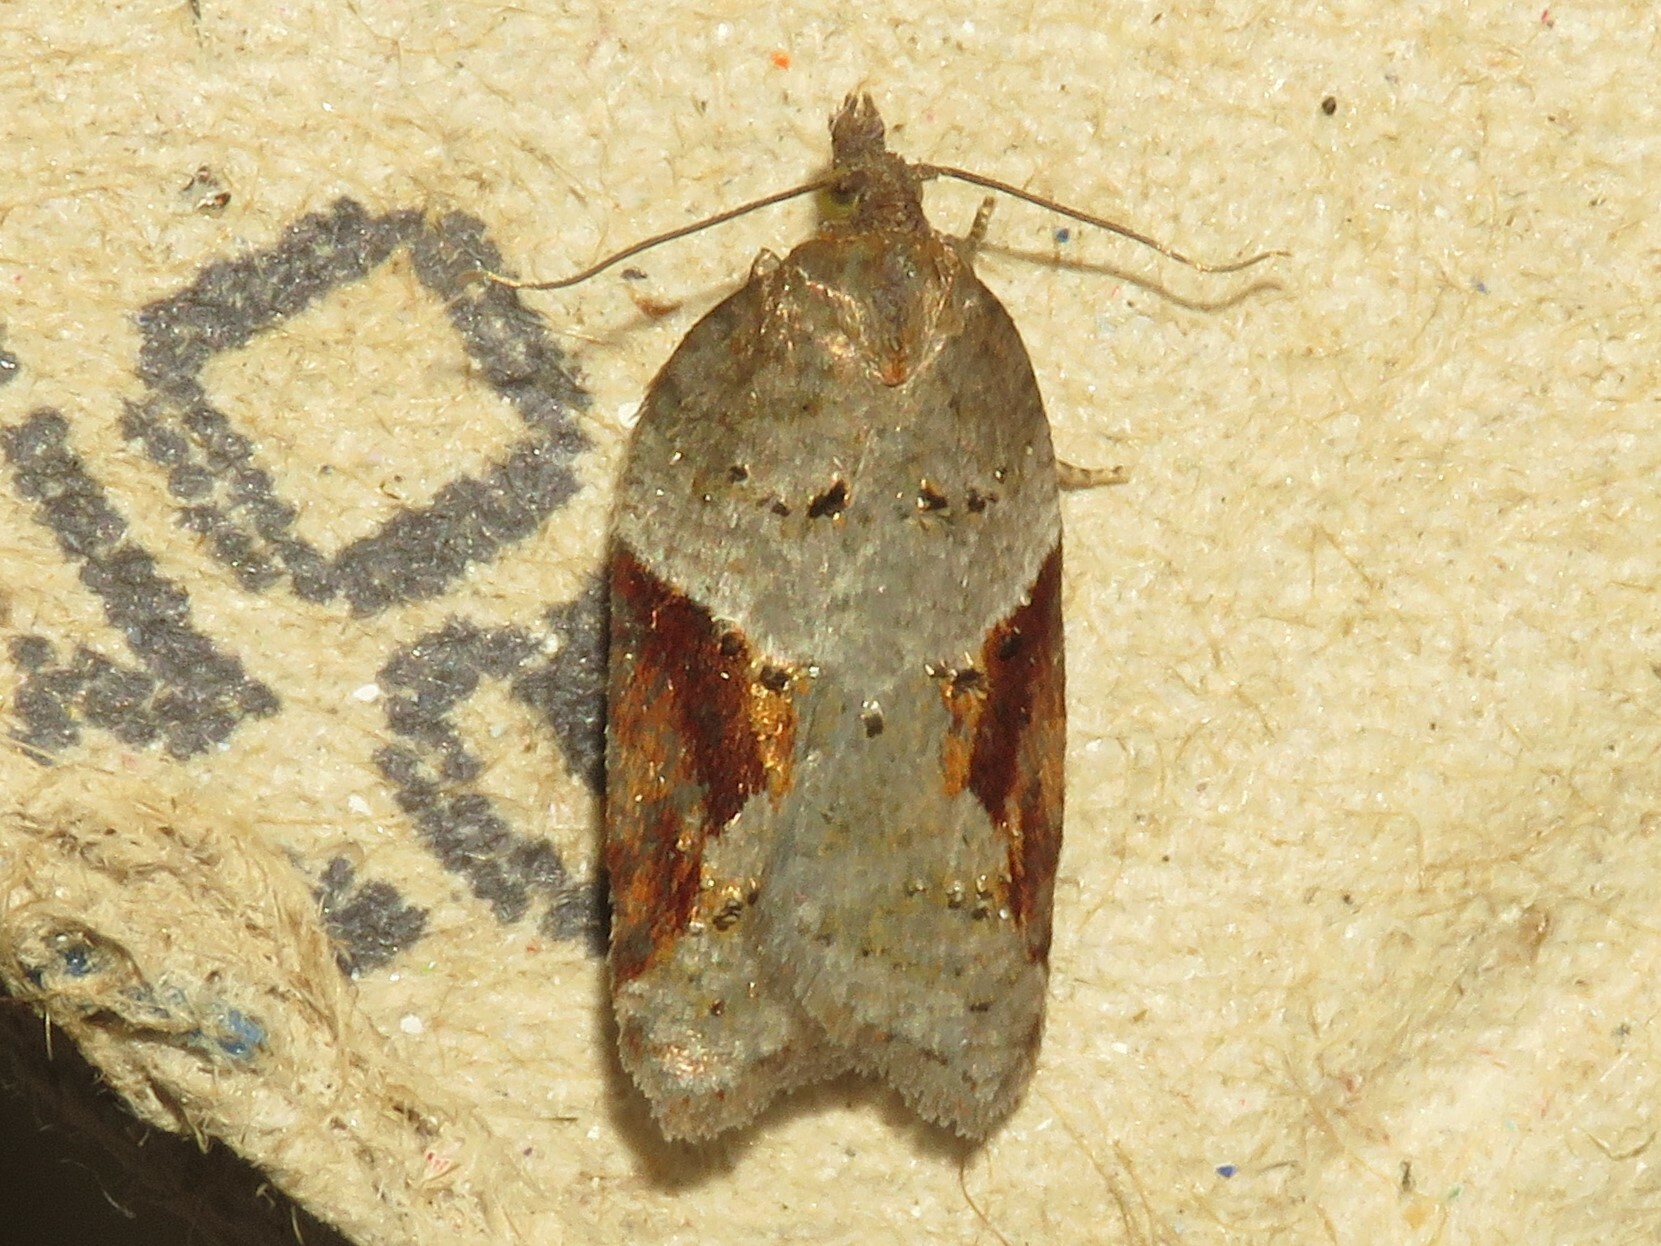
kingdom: Animalia
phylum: Arthropoda
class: Insecta
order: Lepidoptera
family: Tortricidae
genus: Acleris
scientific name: Acleris macdunnoughi
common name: Macdunnough's acleris
